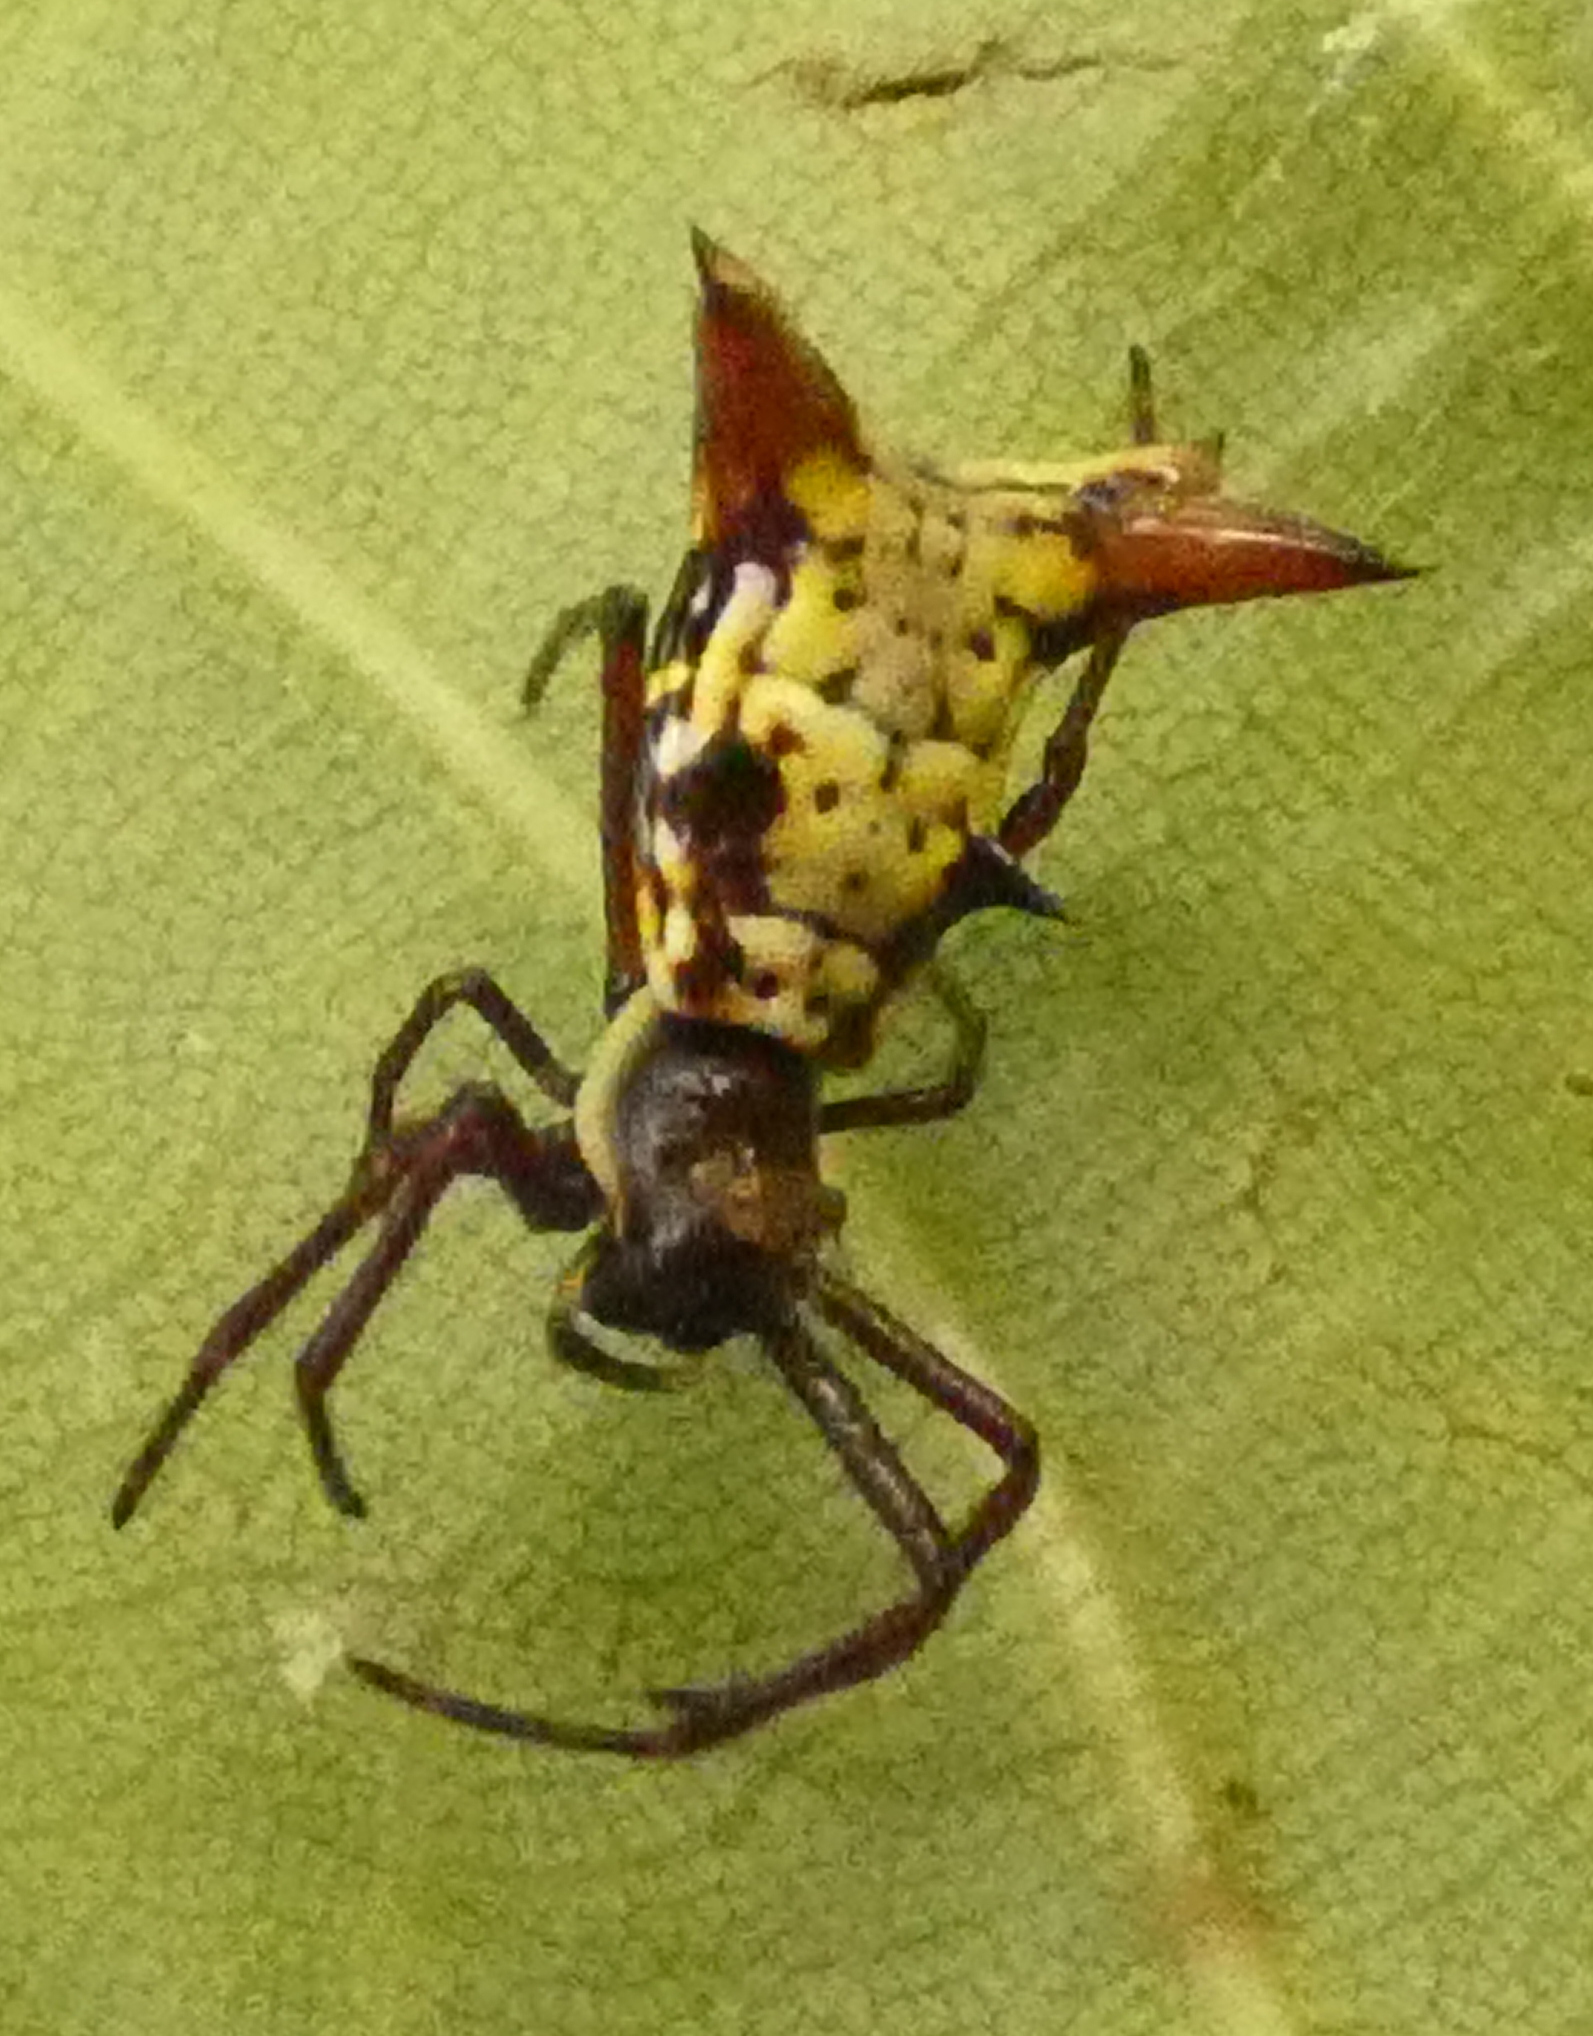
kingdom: Animalia
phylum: Arthropoda
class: Arachnida
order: Araneae
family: Araneidae
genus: Micrathena
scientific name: Micrathena fissispina
